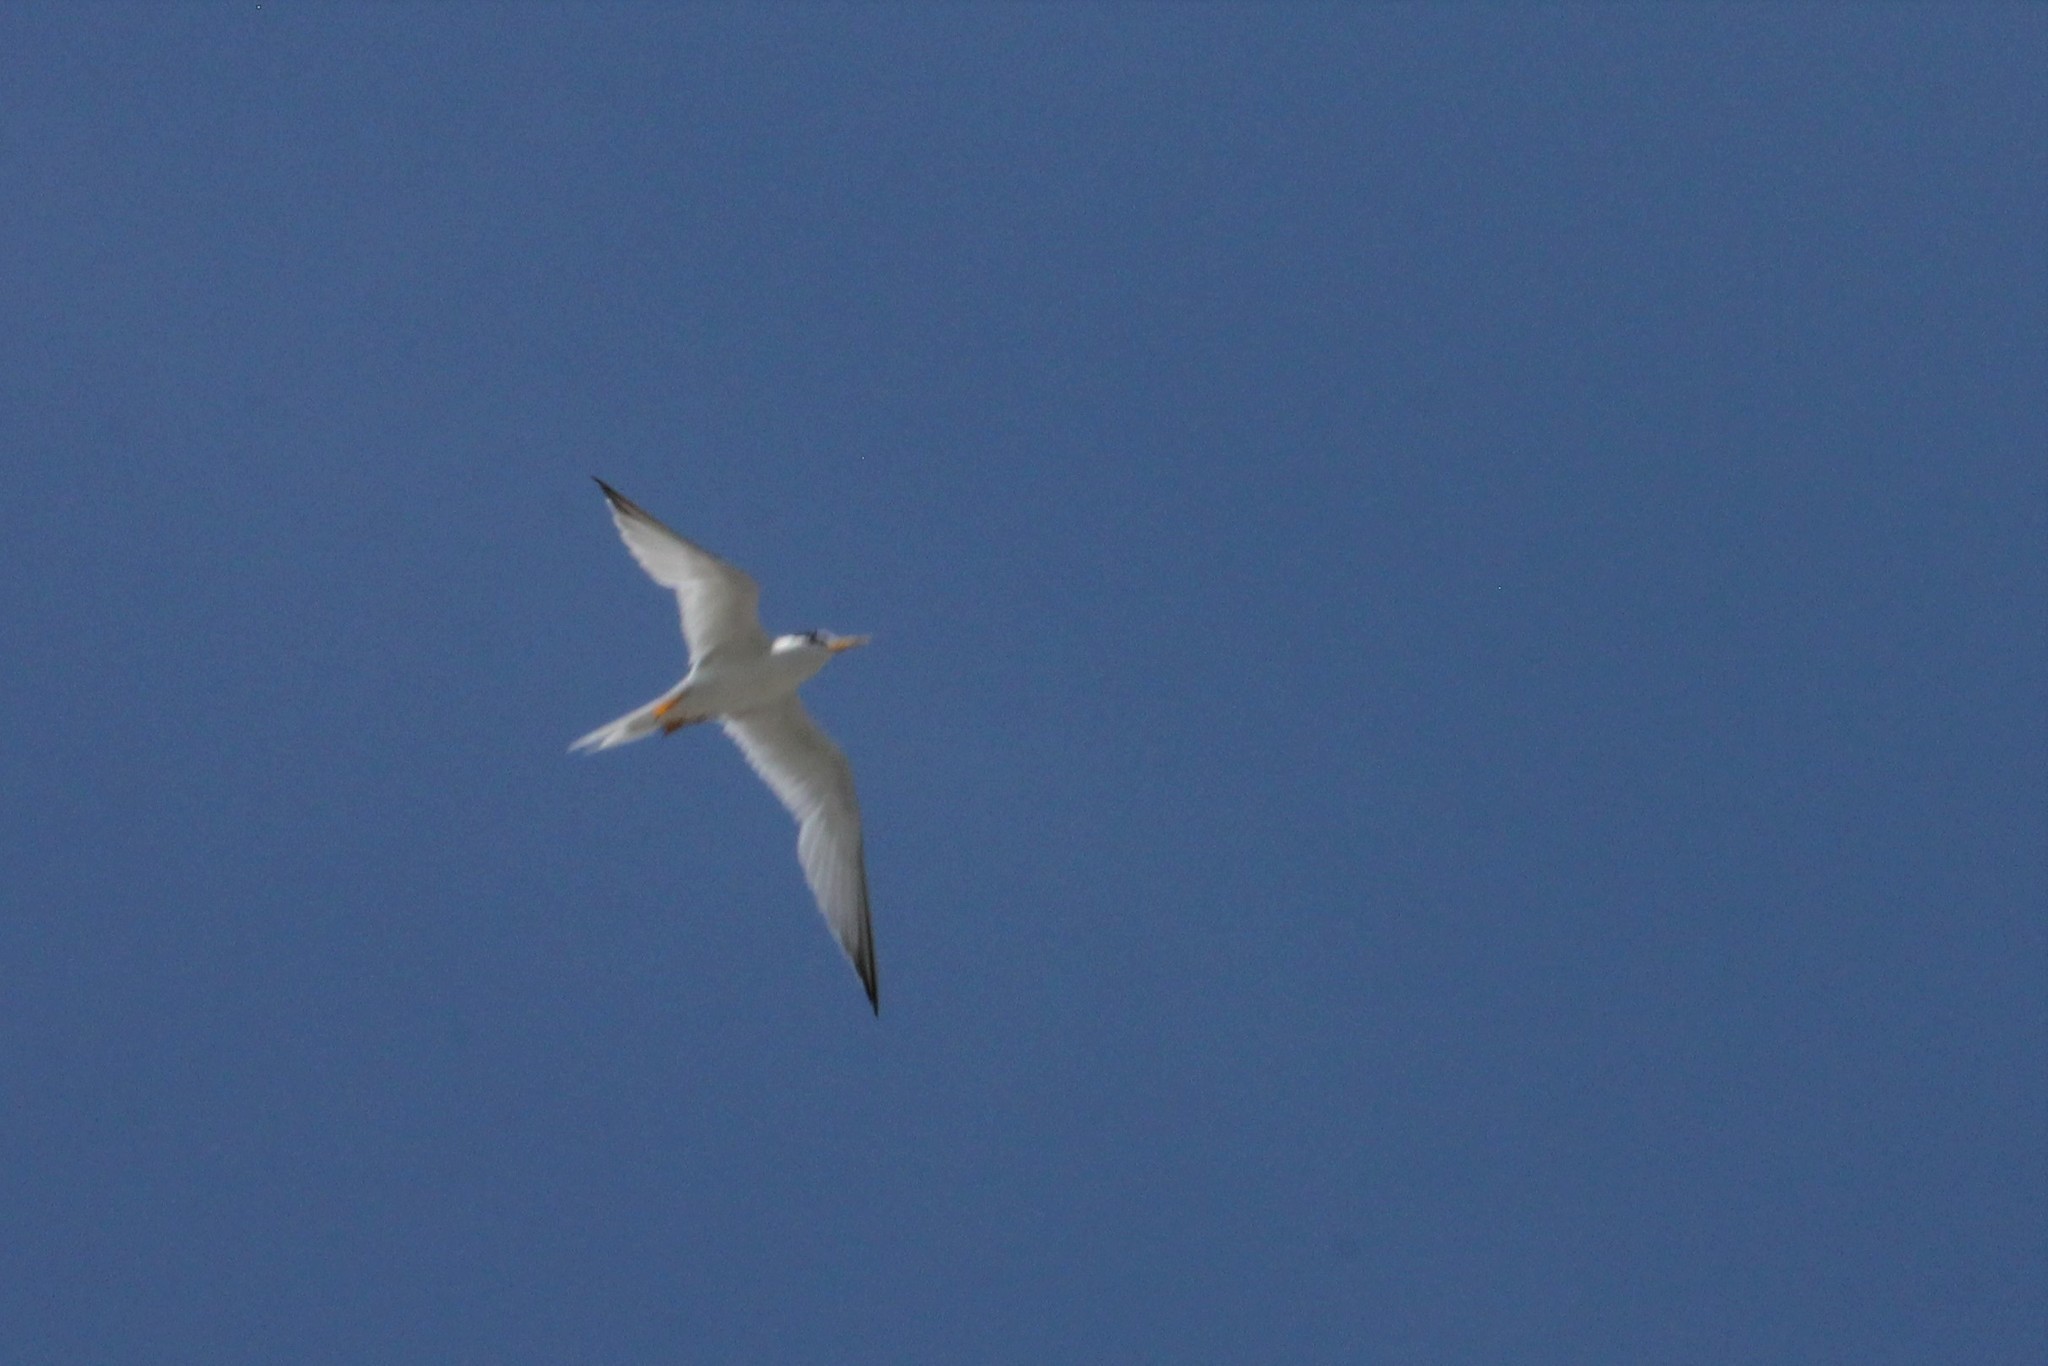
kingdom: Animalia
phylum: Chordata
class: Aves
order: Charadriiformes
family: Laridae
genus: Sternula
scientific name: Sternula antillarum
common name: Least tern
